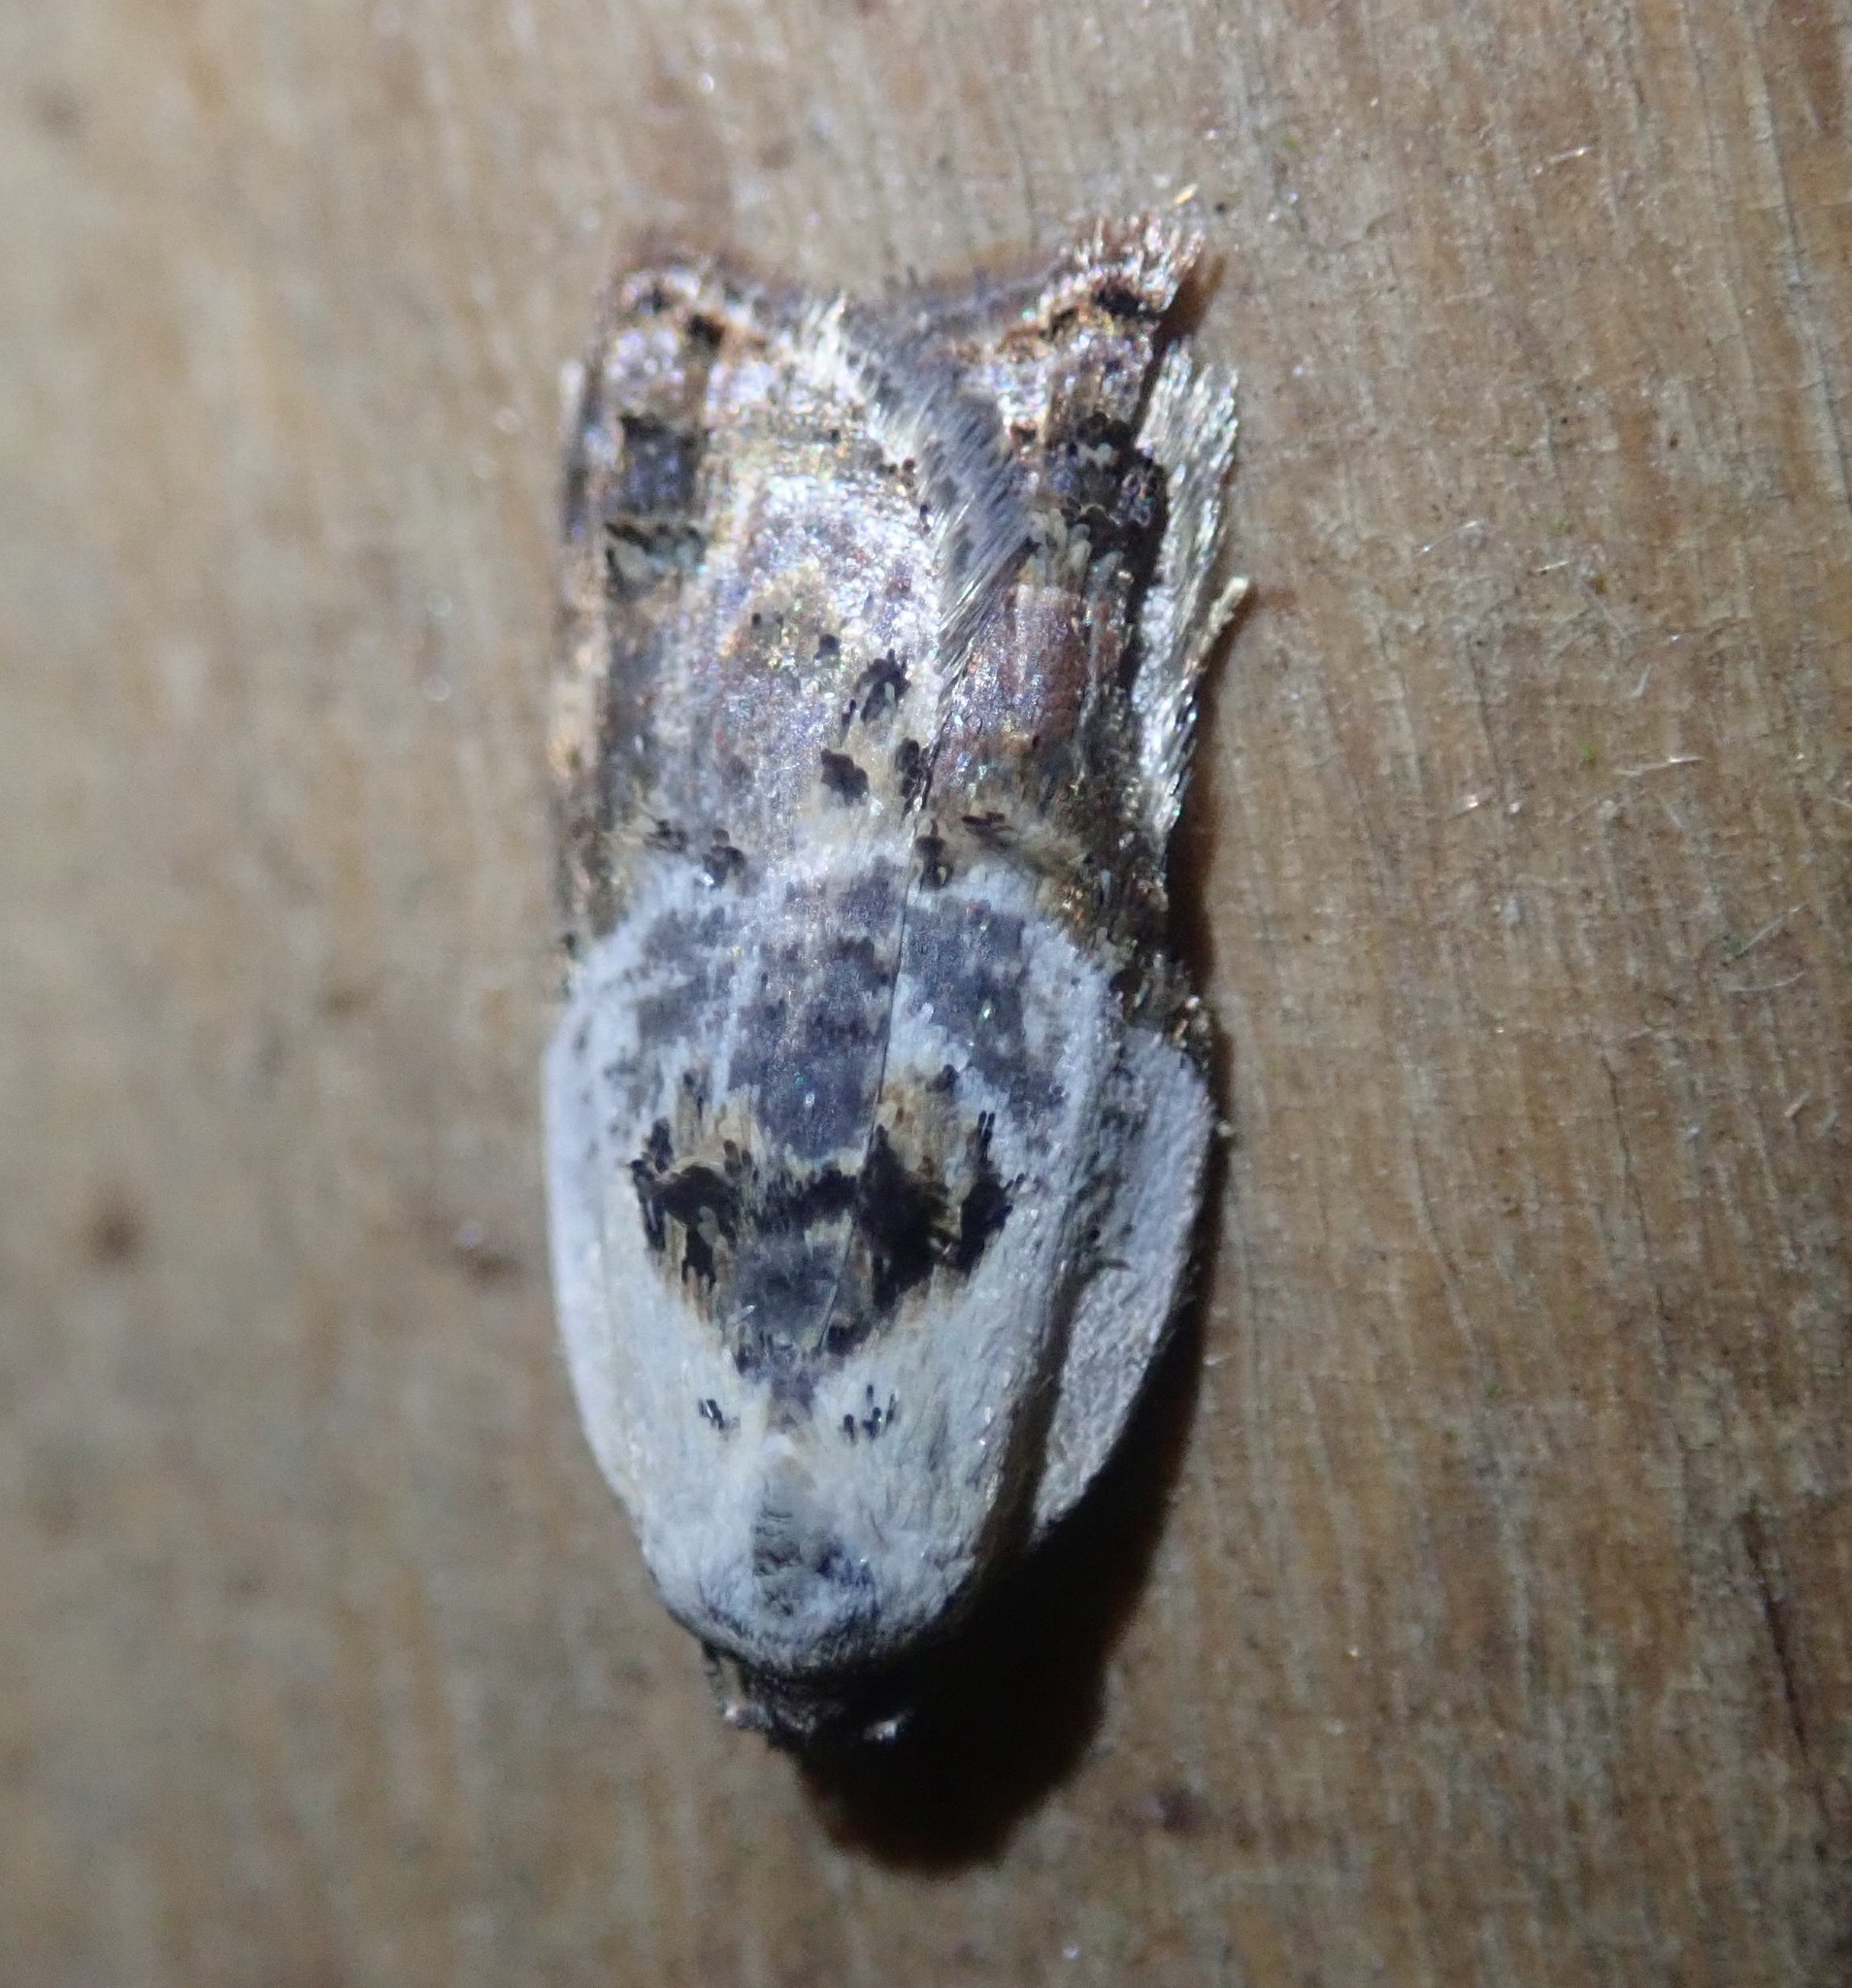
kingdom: Animalia
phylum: Arthropoda
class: Insecta
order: Lepidoptera
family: Tortricidae
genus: Acleris
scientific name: Acleris variegana
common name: Garden rose tortrix
